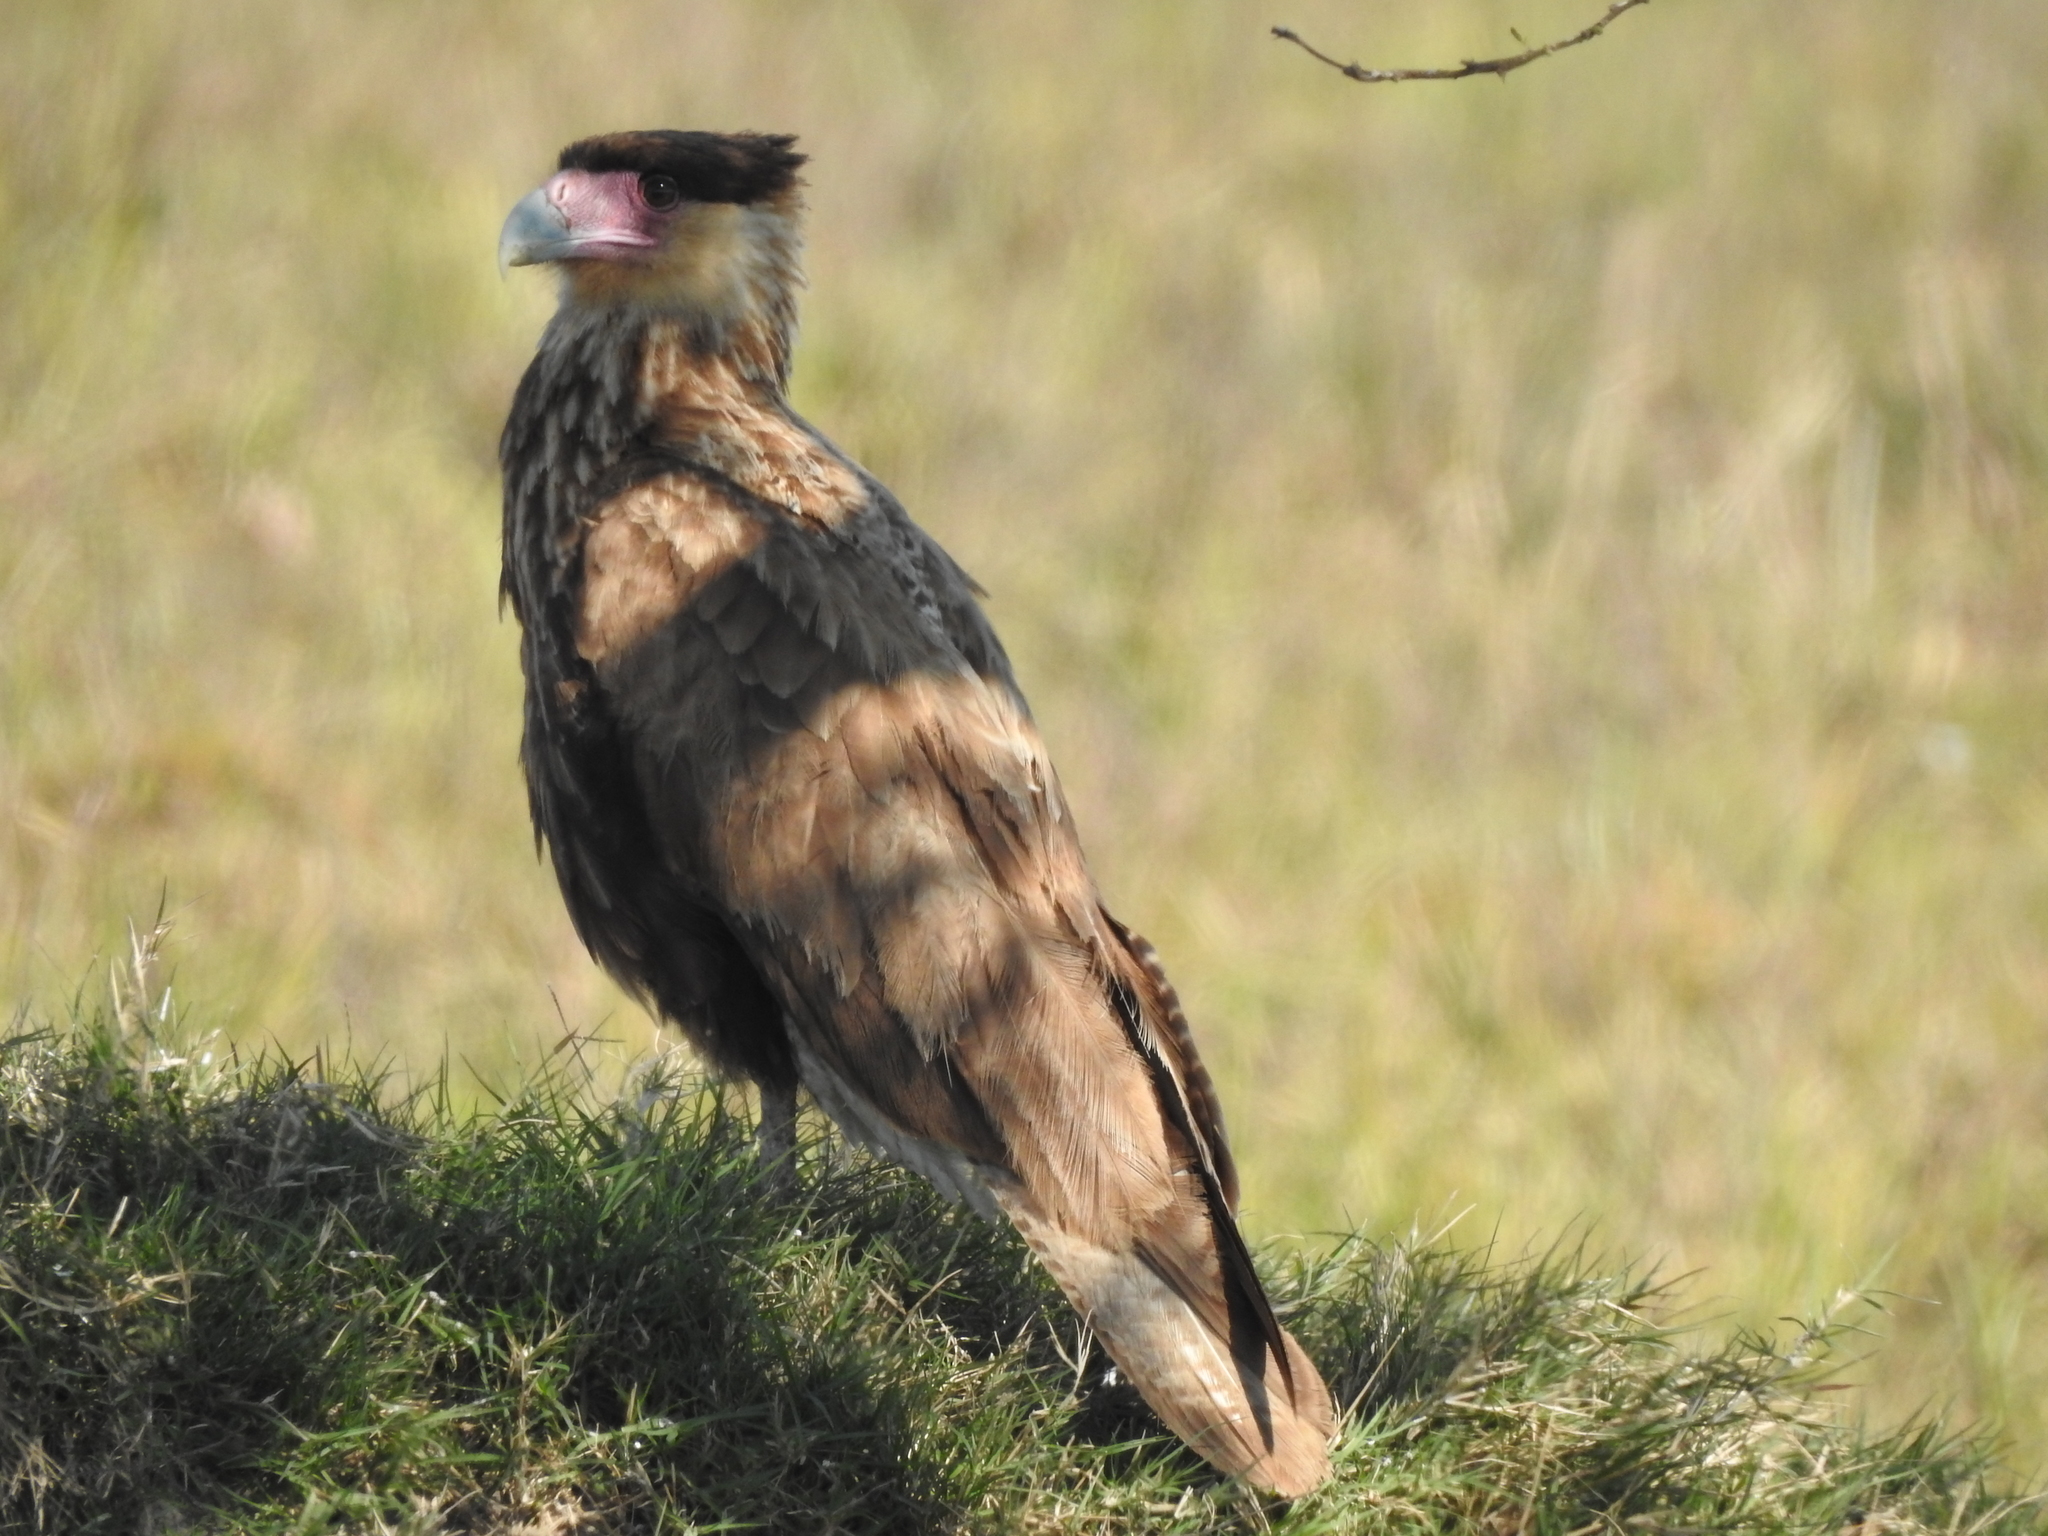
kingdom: Animalia
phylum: Chordata
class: Aves
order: Falconiformes
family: Falconidae
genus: Caracara
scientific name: Caracara plancus
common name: Southern caracara
